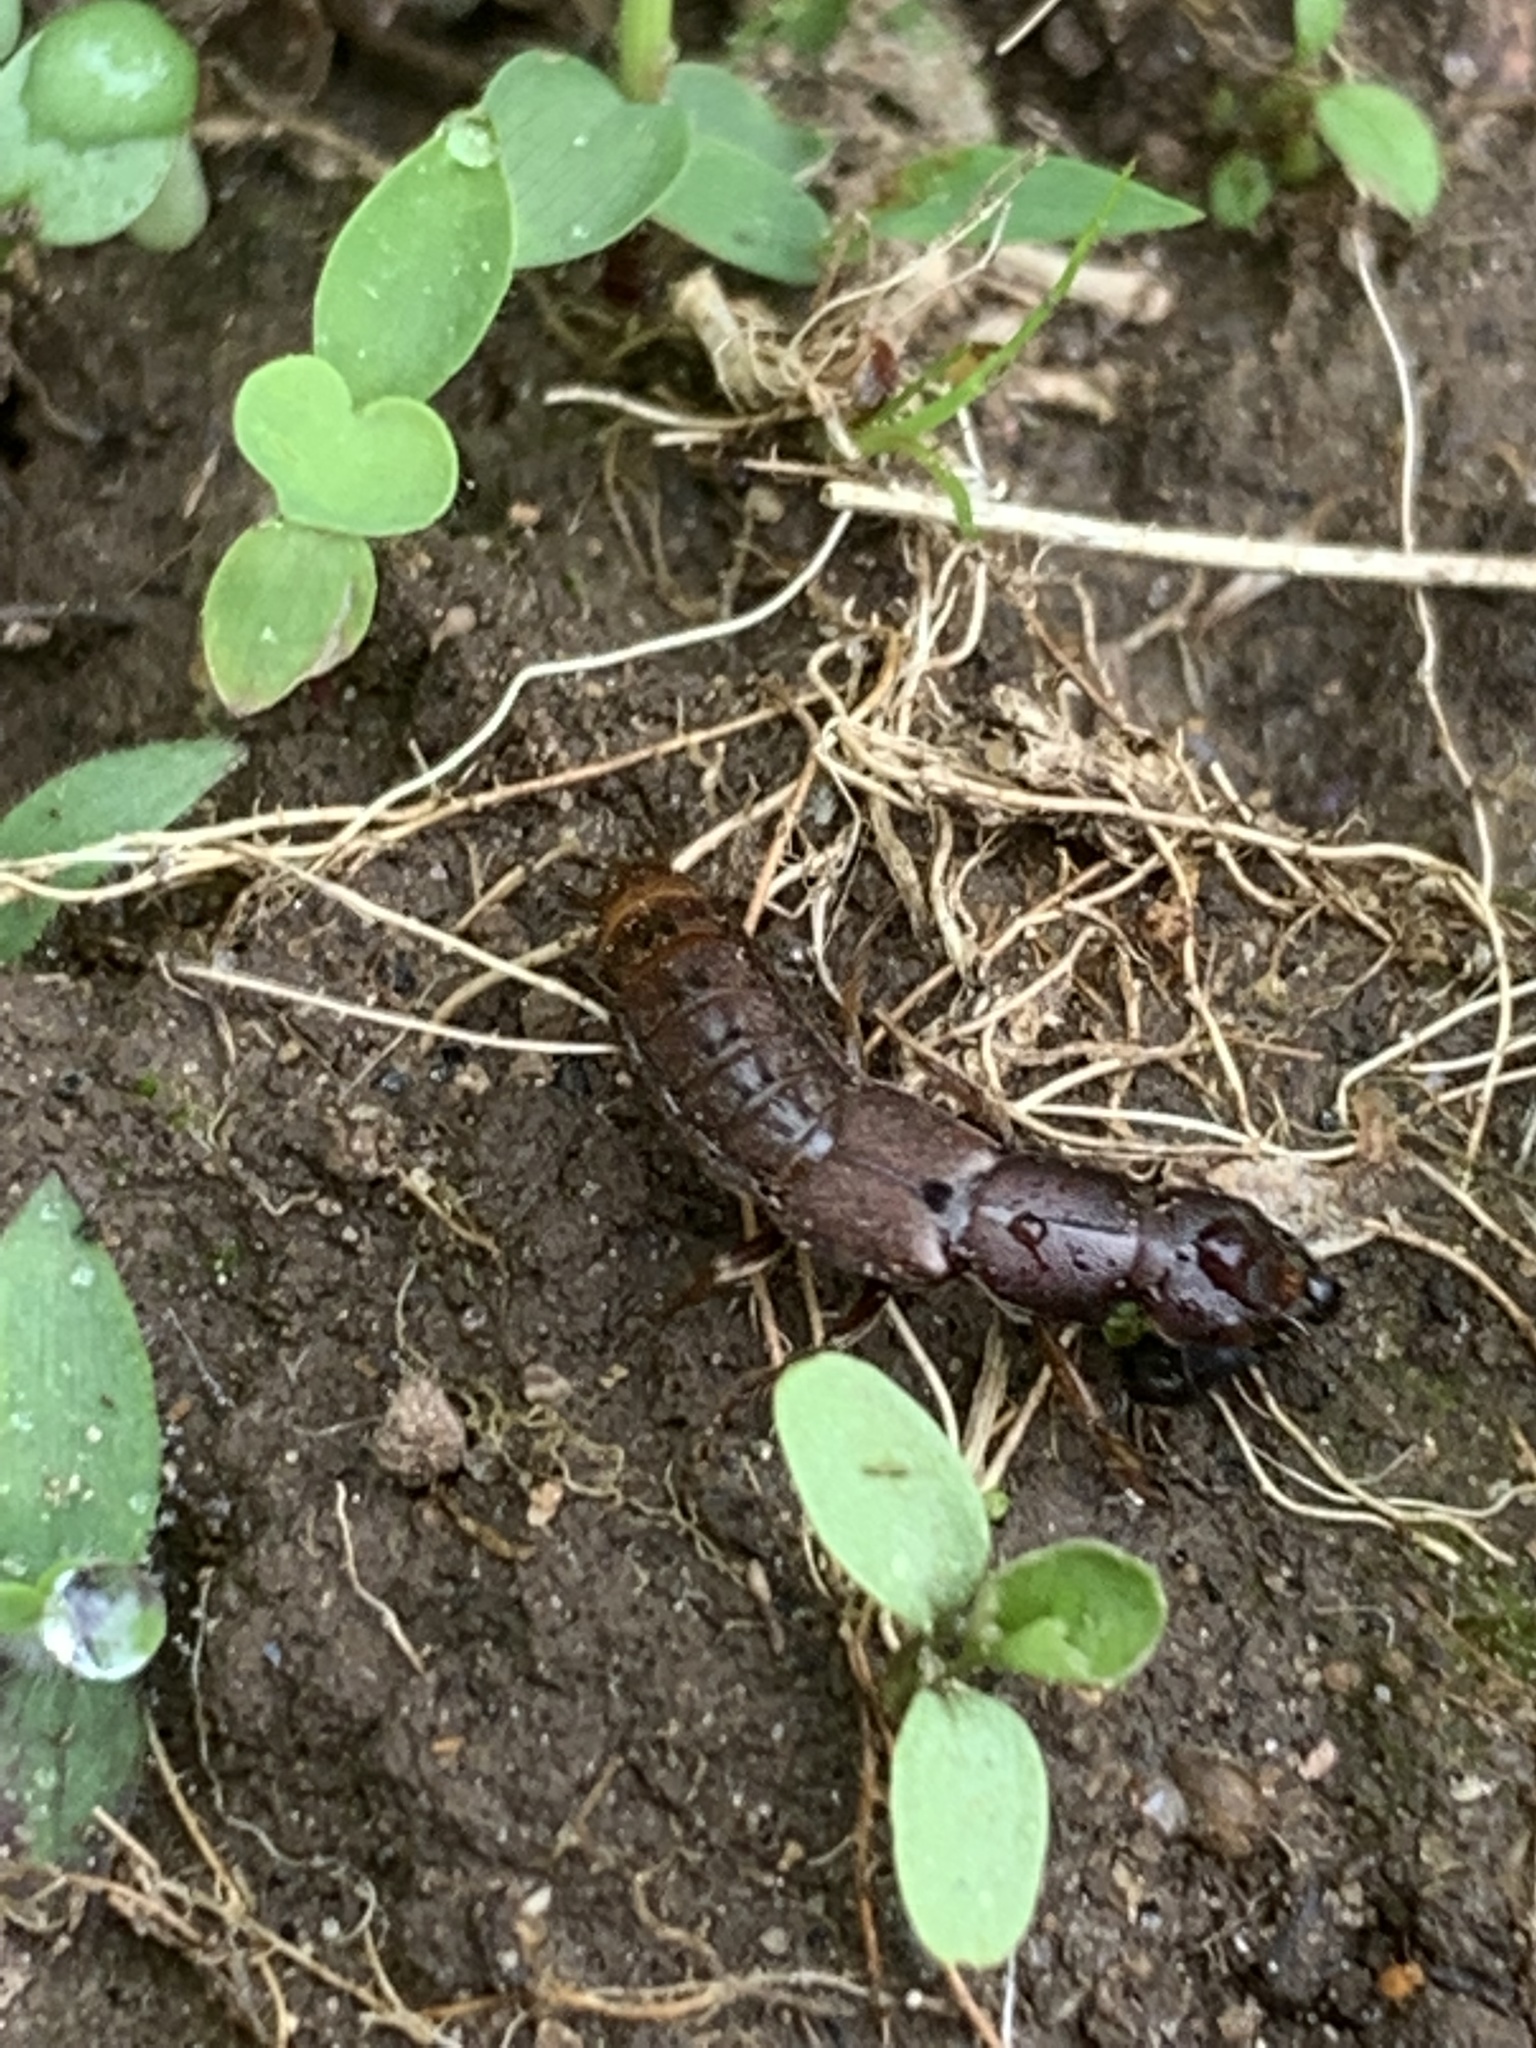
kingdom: Animalia
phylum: Arthropoda
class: Insecta
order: Coleoptera
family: Staphylinidae
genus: Platydracus
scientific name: Platydracus cinnamopterus
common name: Cinnamon rove beetle
